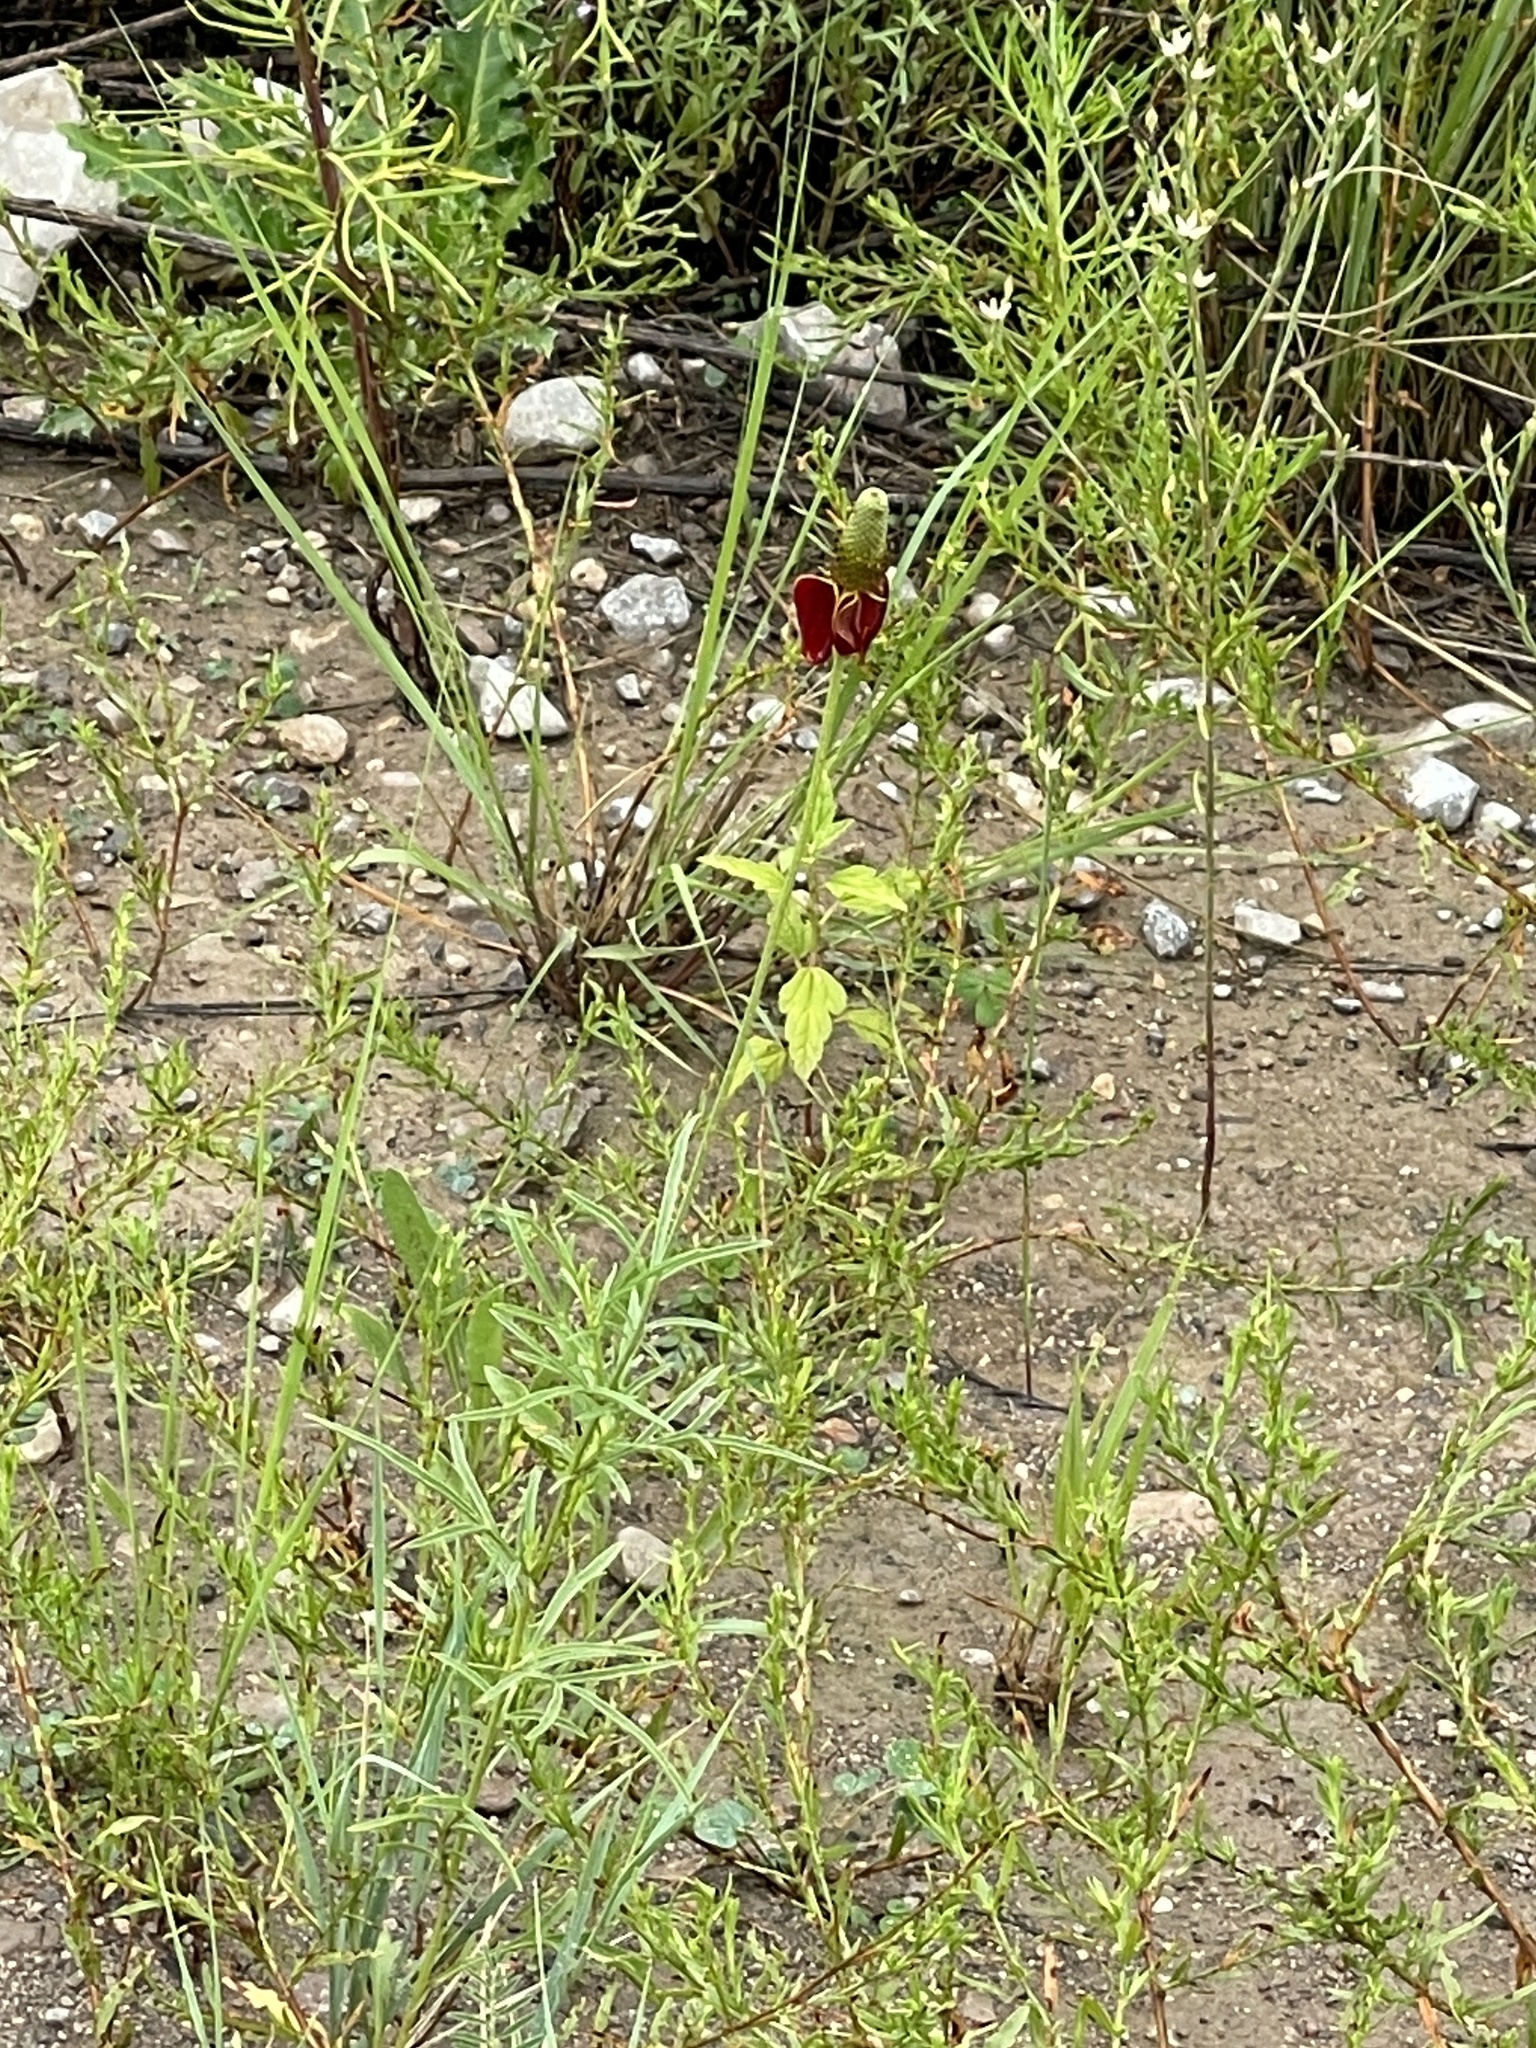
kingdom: Plantae
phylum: Tracheophyta
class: Magnoliopsida
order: Asterales
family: Asteraceae
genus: Ratibida
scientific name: Ratibida columnifera
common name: Prairie coneflower
